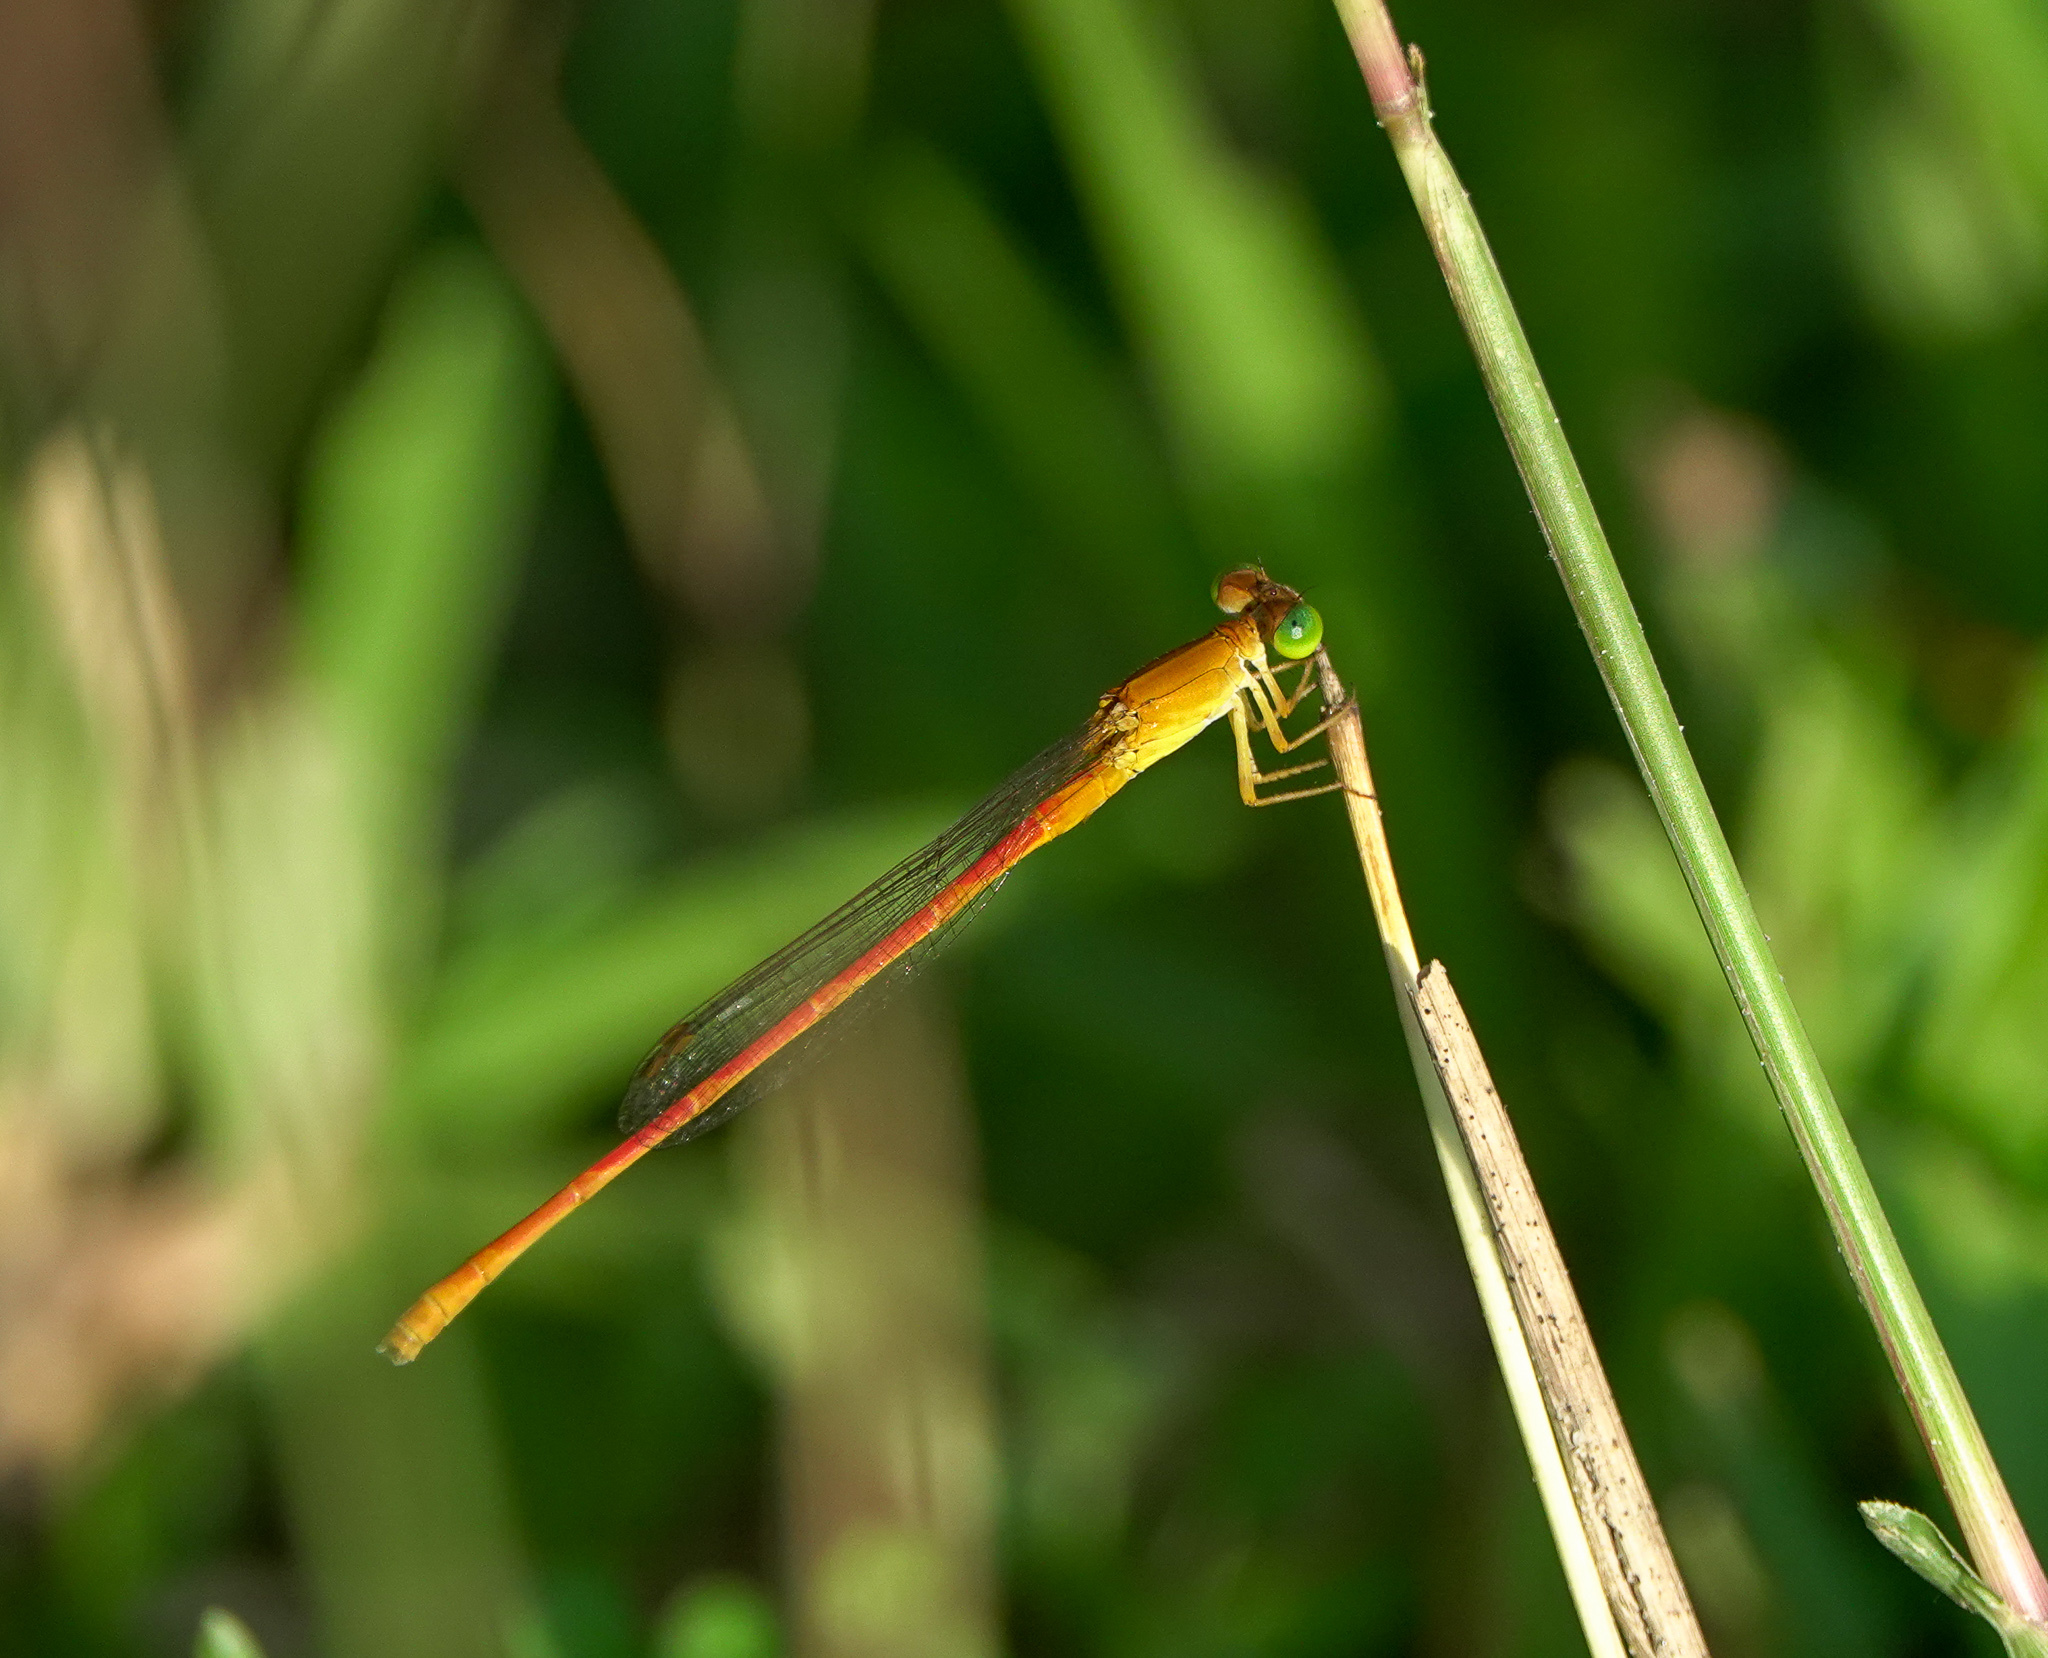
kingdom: Animalia
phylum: Arthropoda
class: Insecta
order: Odonata
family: Coenagrionidae
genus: Ceriagrion
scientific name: Ceriagrion rubiae
